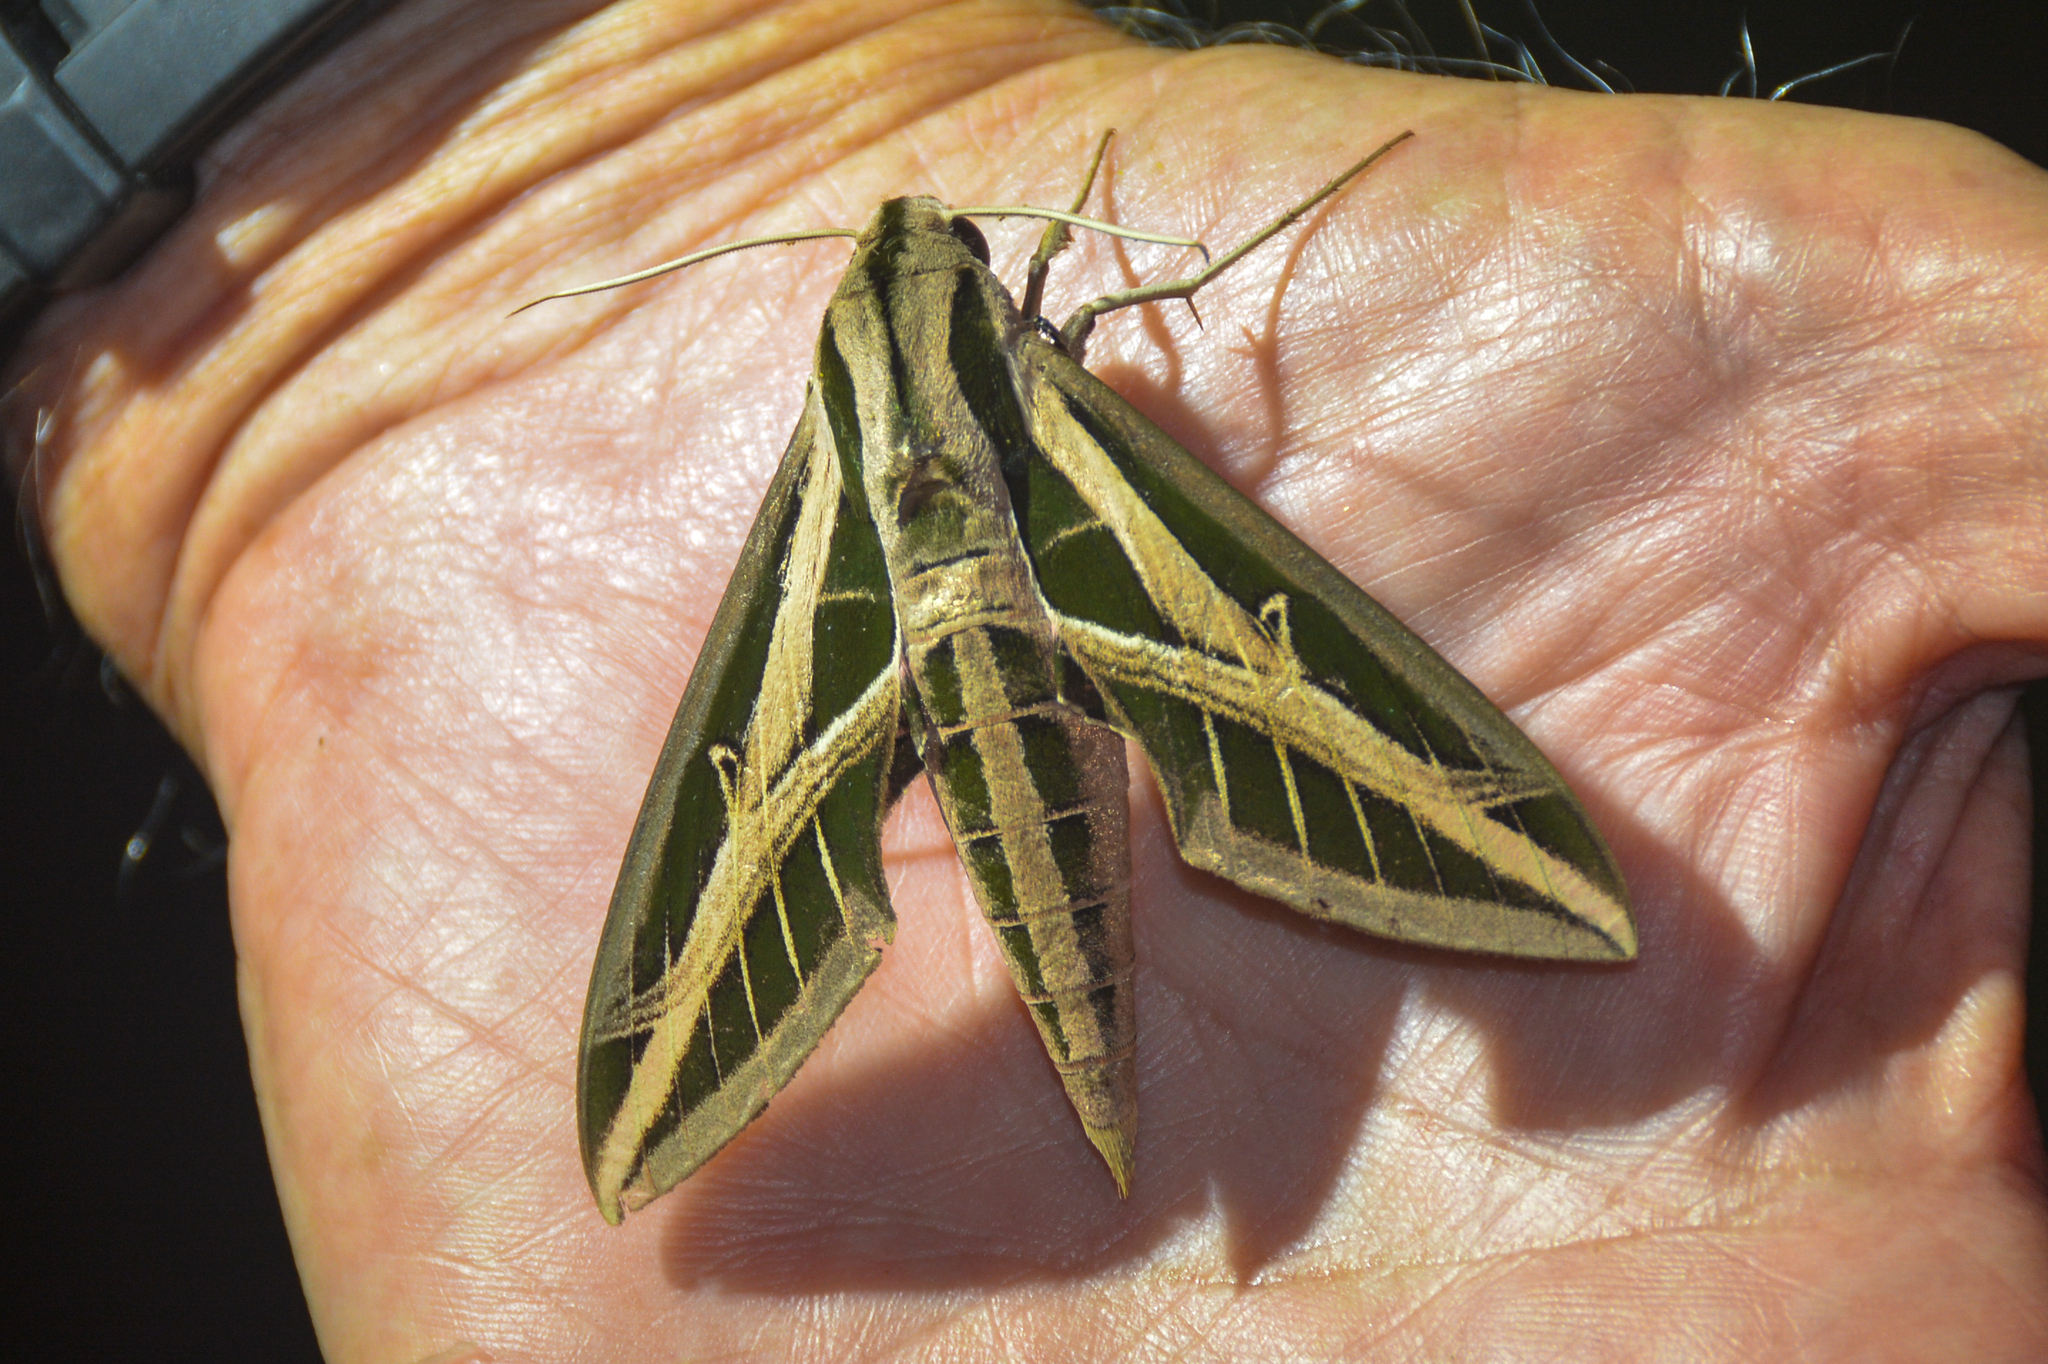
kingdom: Animalia
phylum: Arthropoda
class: Insecta
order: Lepidoptera
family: Sphingidae
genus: Eumorpha
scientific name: Eumorpha fasciatus
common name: Banded sphinx
